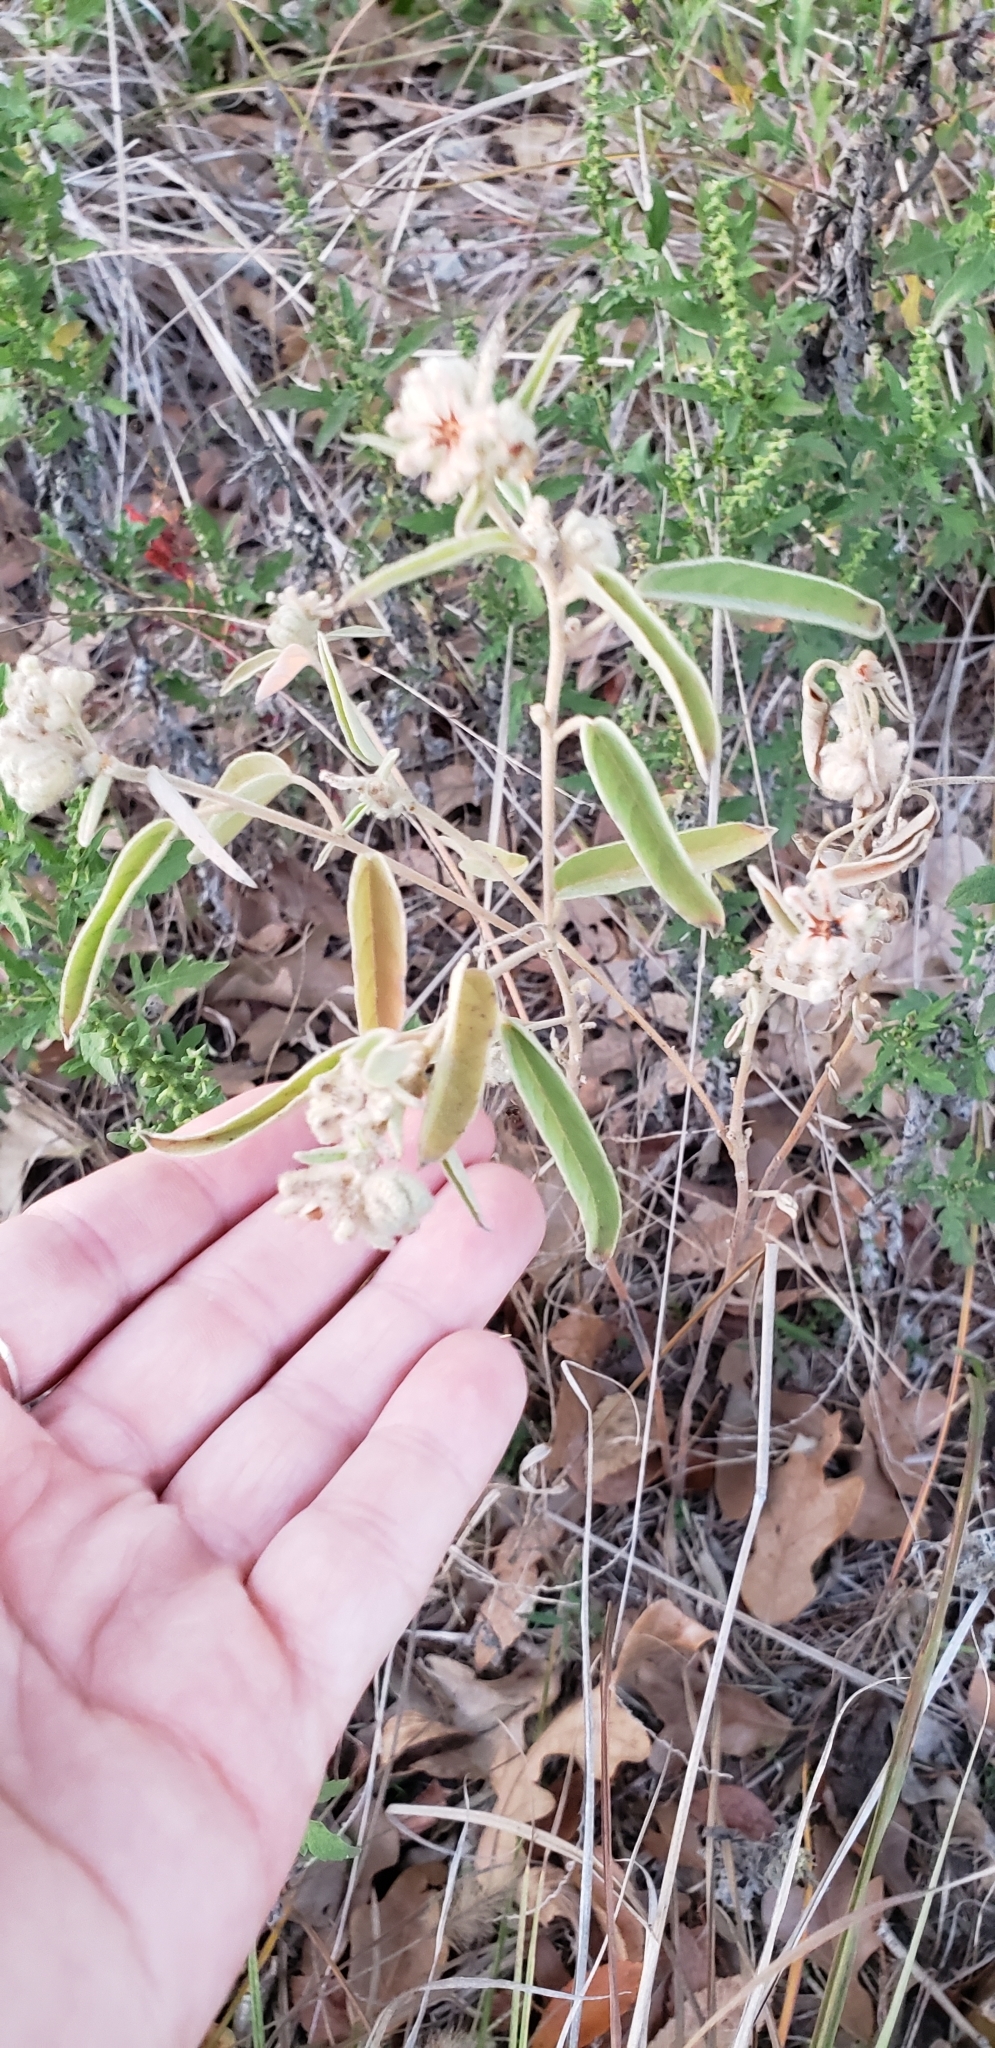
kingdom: Plantae
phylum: Tracheophyta
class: Magnoliopsida
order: Malpighiales
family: Euphorbiaceae
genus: Croton
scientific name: Croton capitatus
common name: Woolly croton
